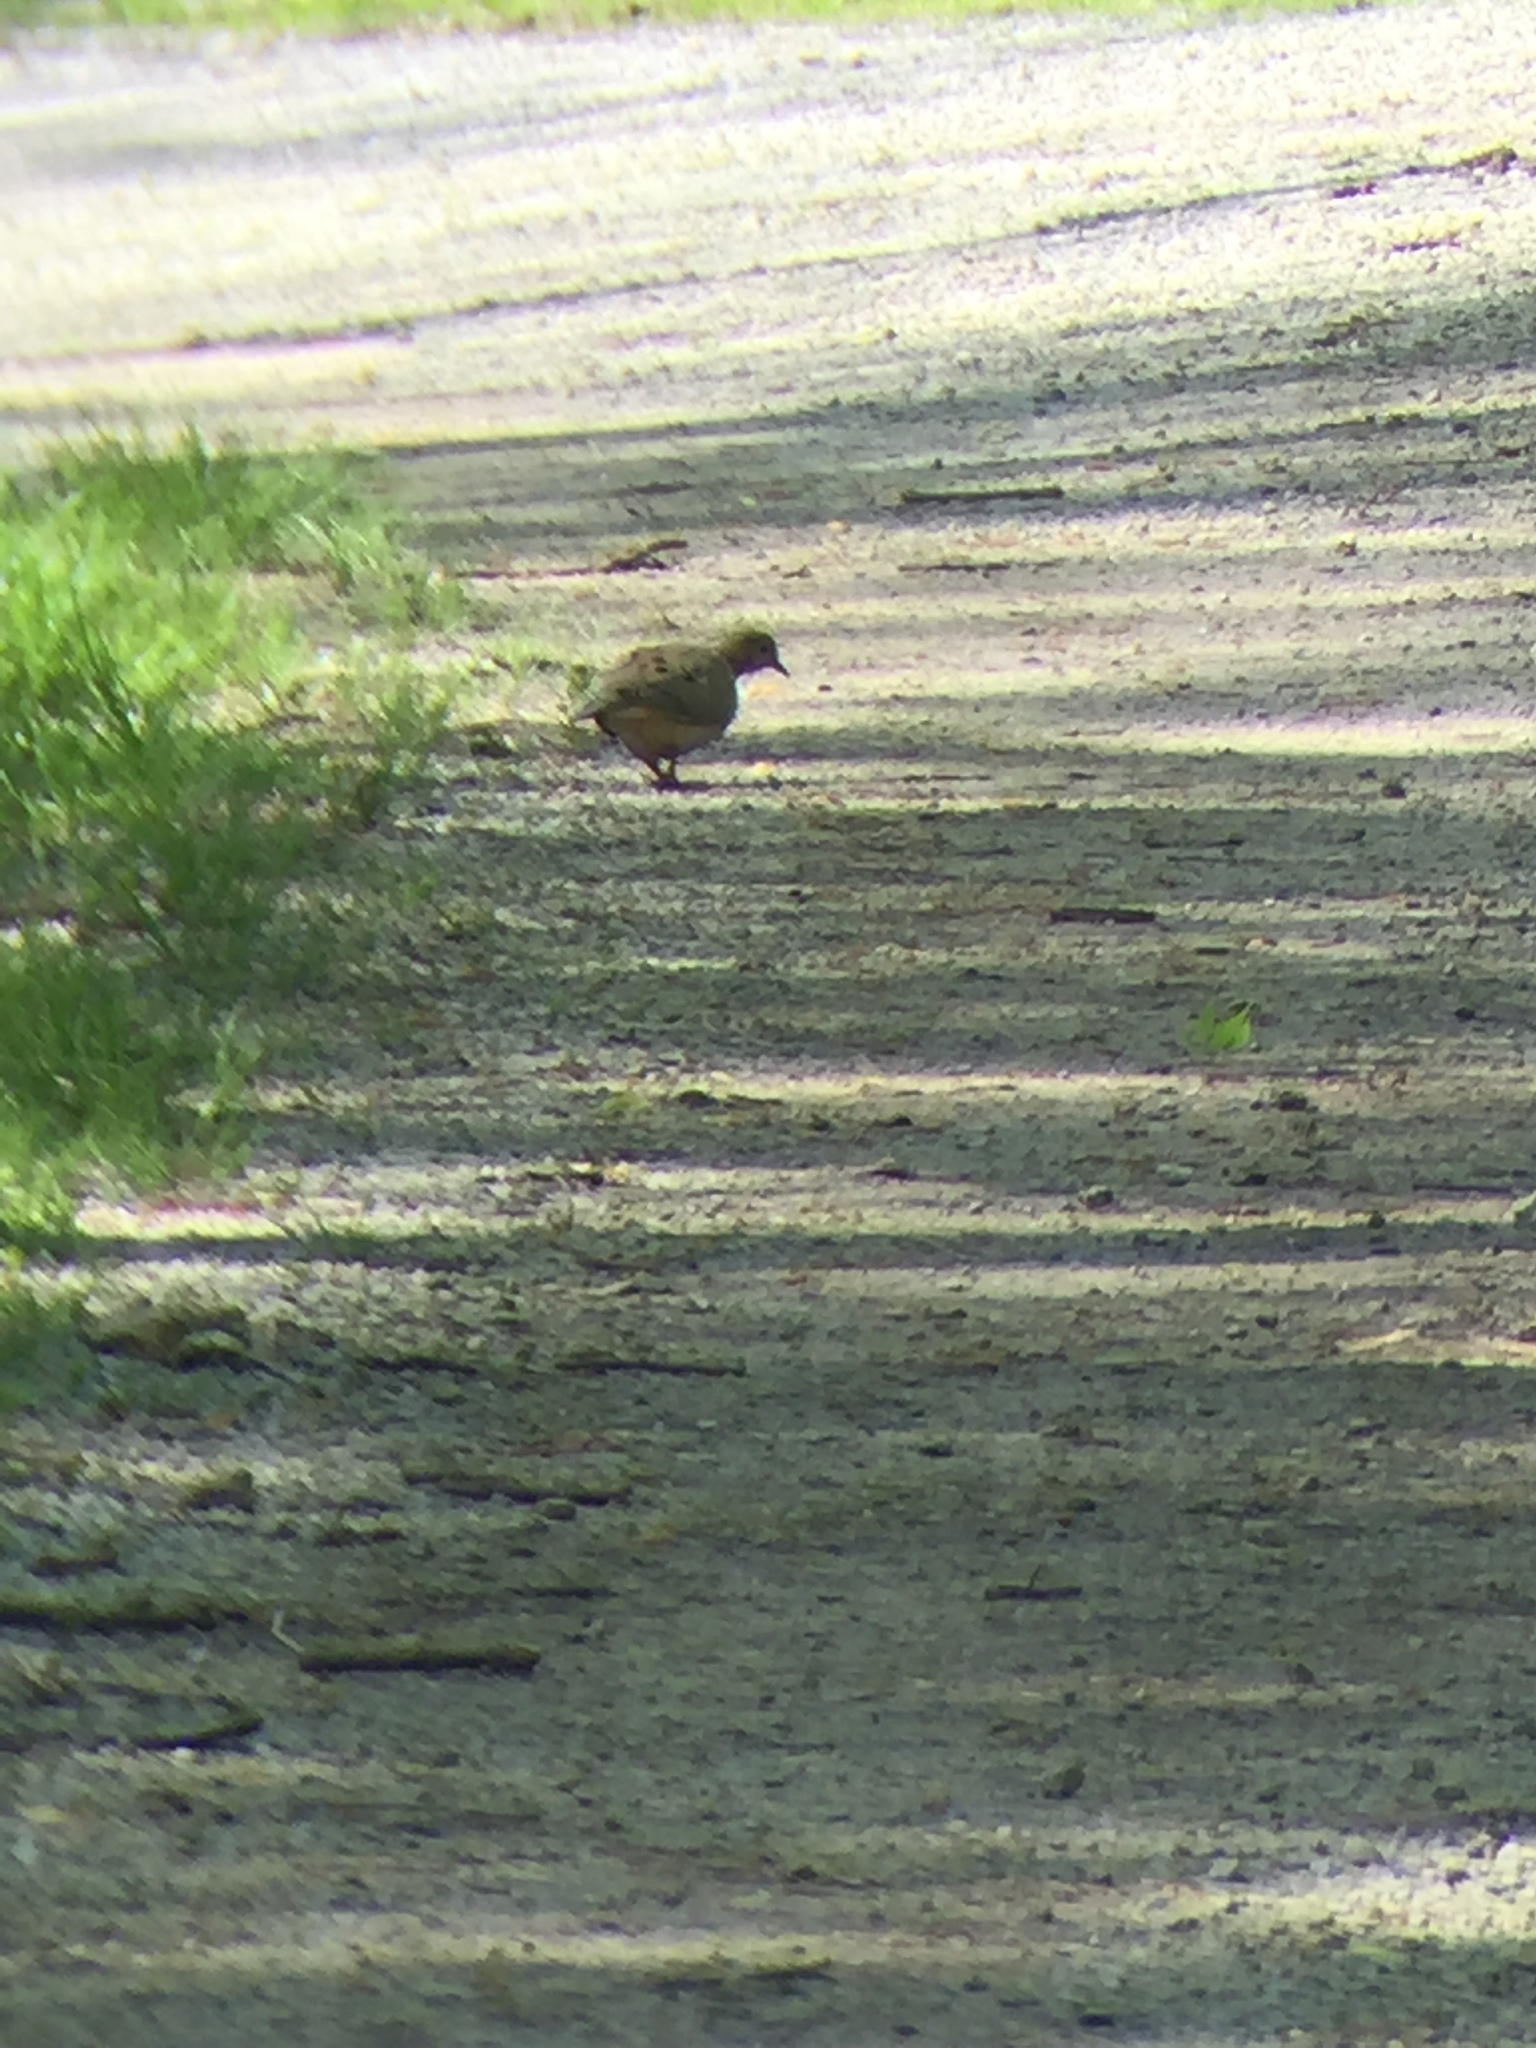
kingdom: Animalia
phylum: Chordata
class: Aves
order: Columbiformes
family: Columbidae
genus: Zenaida
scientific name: Zenaida macroura
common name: Mourning dove
